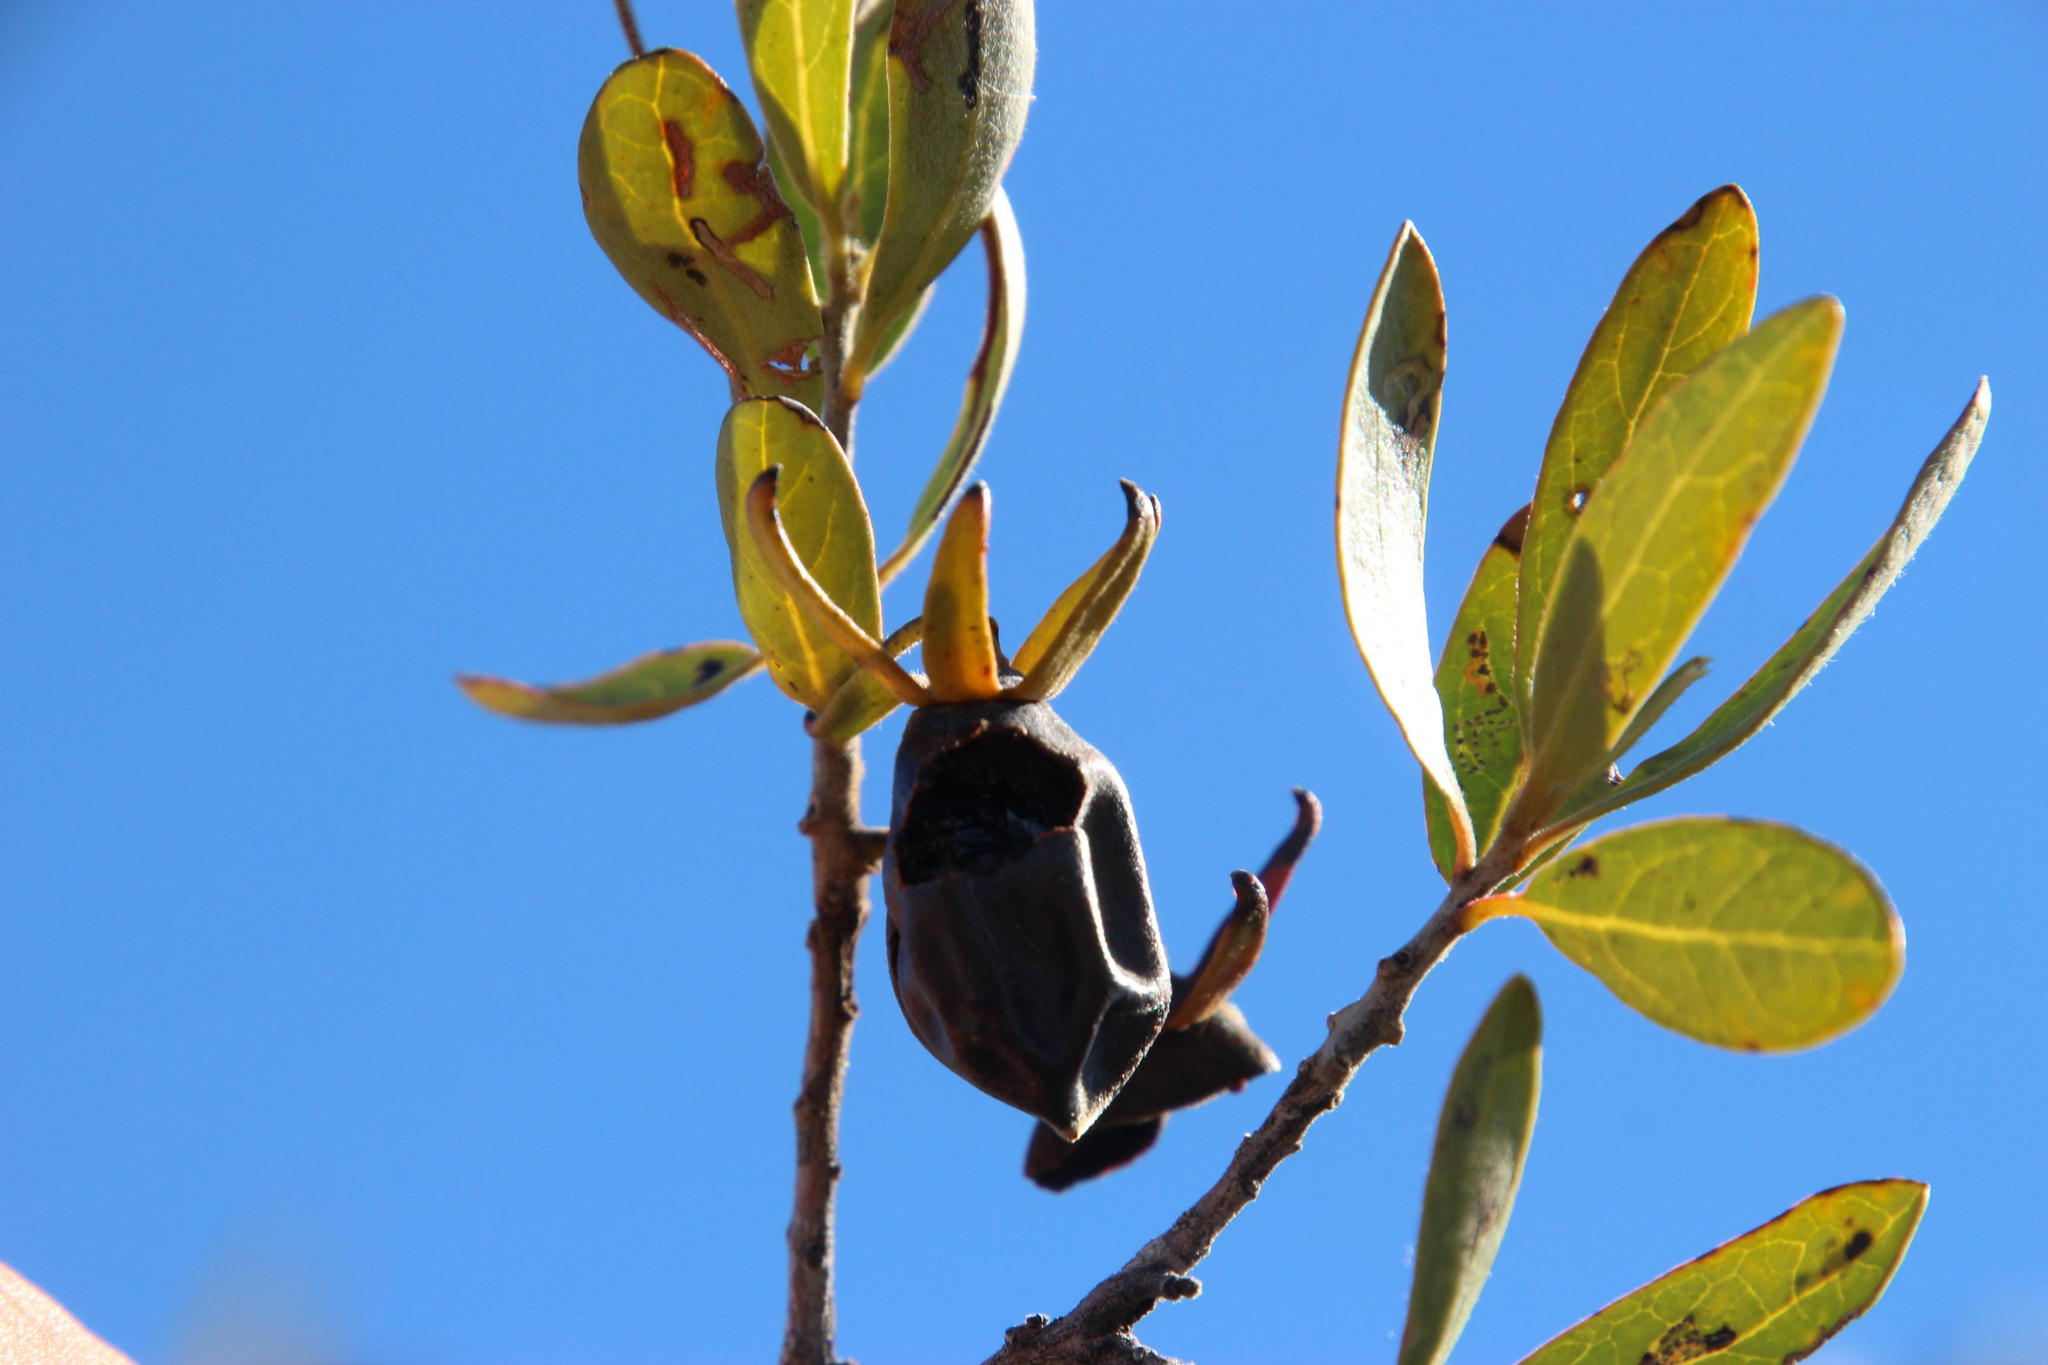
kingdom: Plantae
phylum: Tracheophyta
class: Magnoliopsida
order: Ericales
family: Ebenaceae
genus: Diospyros
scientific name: Diospyros lycioides
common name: Red star apple
